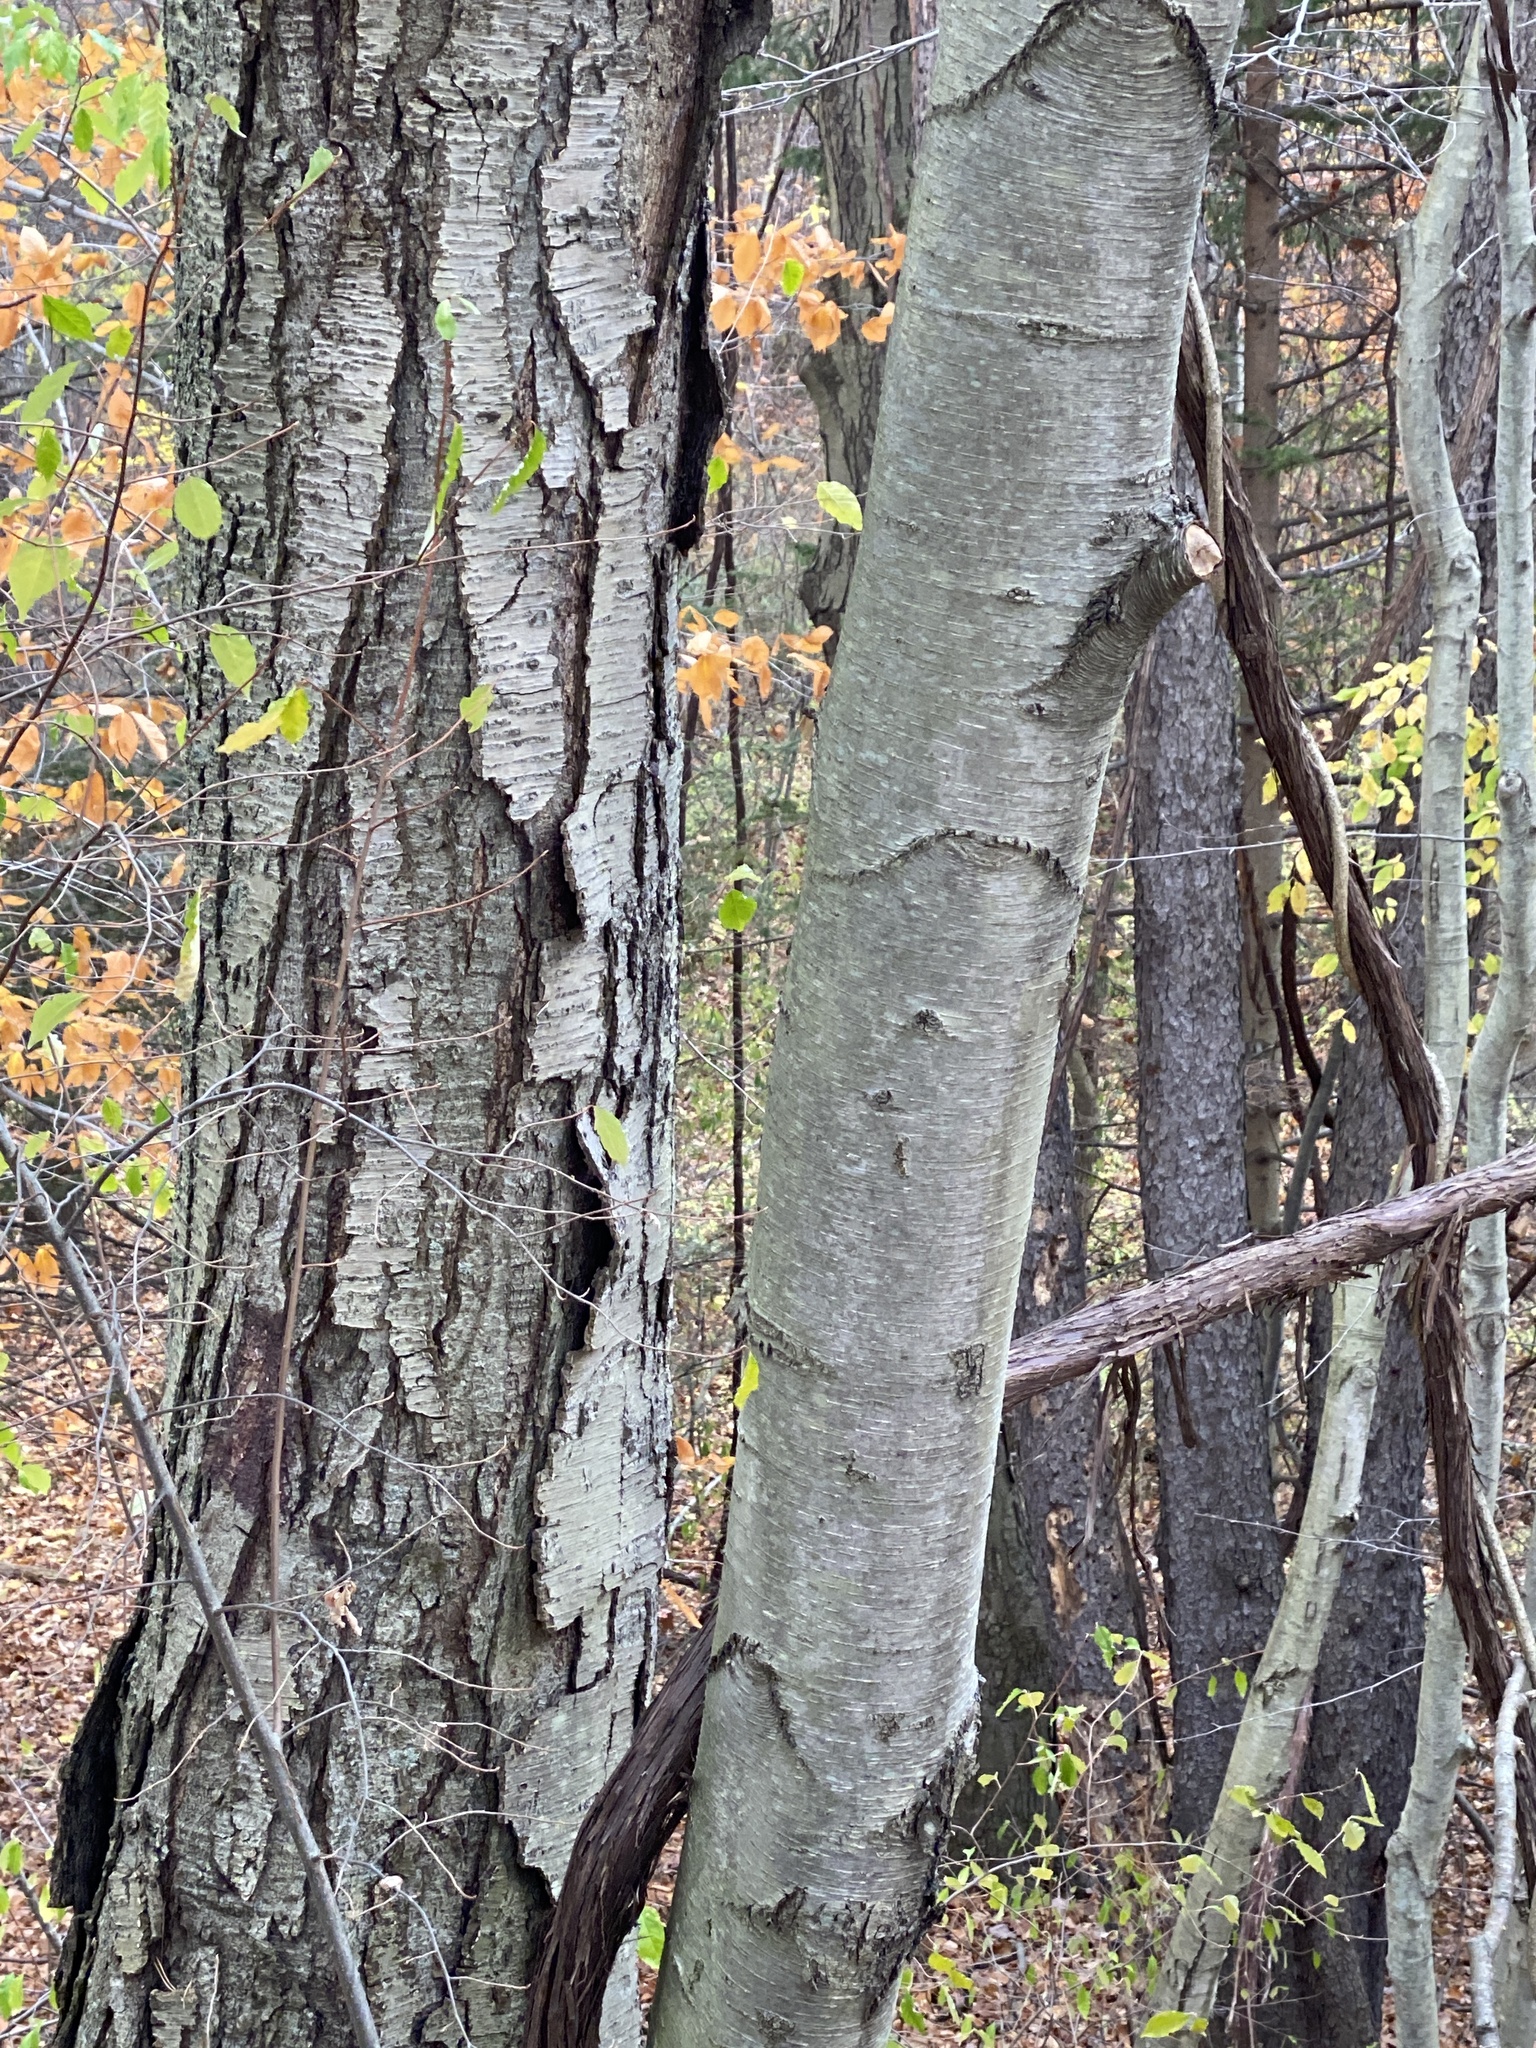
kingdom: Plantae
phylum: Tracheophyta
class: Magnoliopsida
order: Fagales
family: Betulaceae
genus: Betula
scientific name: Betula lenta
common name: Black birch
